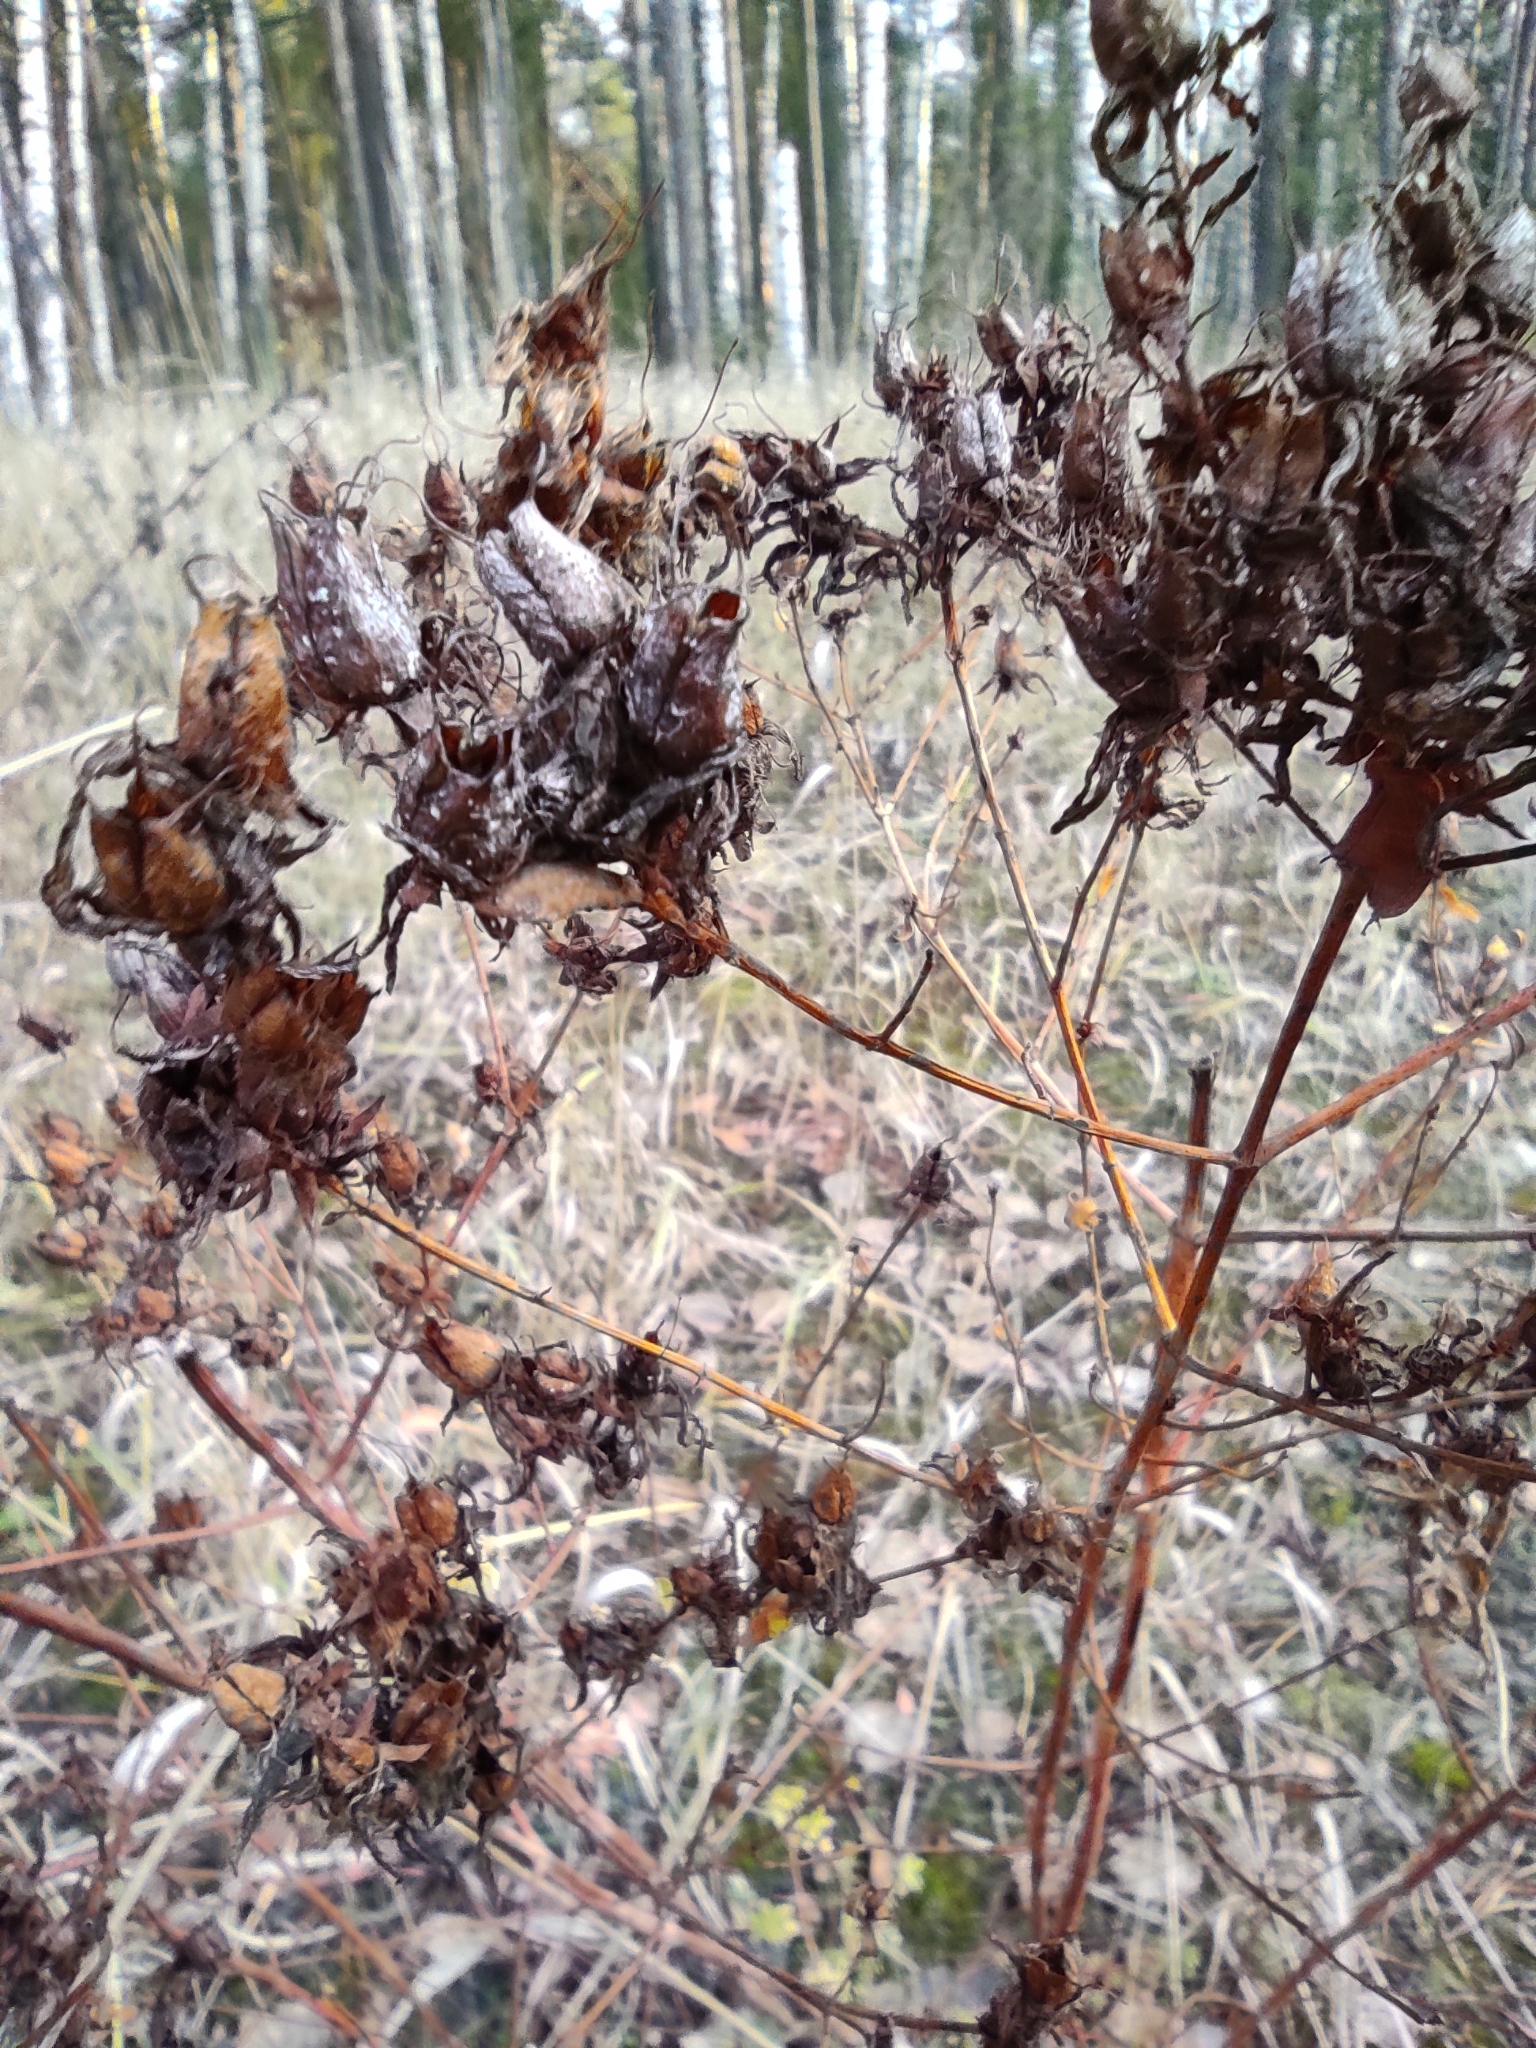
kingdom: Plantae
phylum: Tracheophyta
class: Magnoliopsida
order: Malpighiales
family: Hypericaceae
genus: Hypericum
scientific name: Hypericum perforatum
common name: Common st. johnswort
